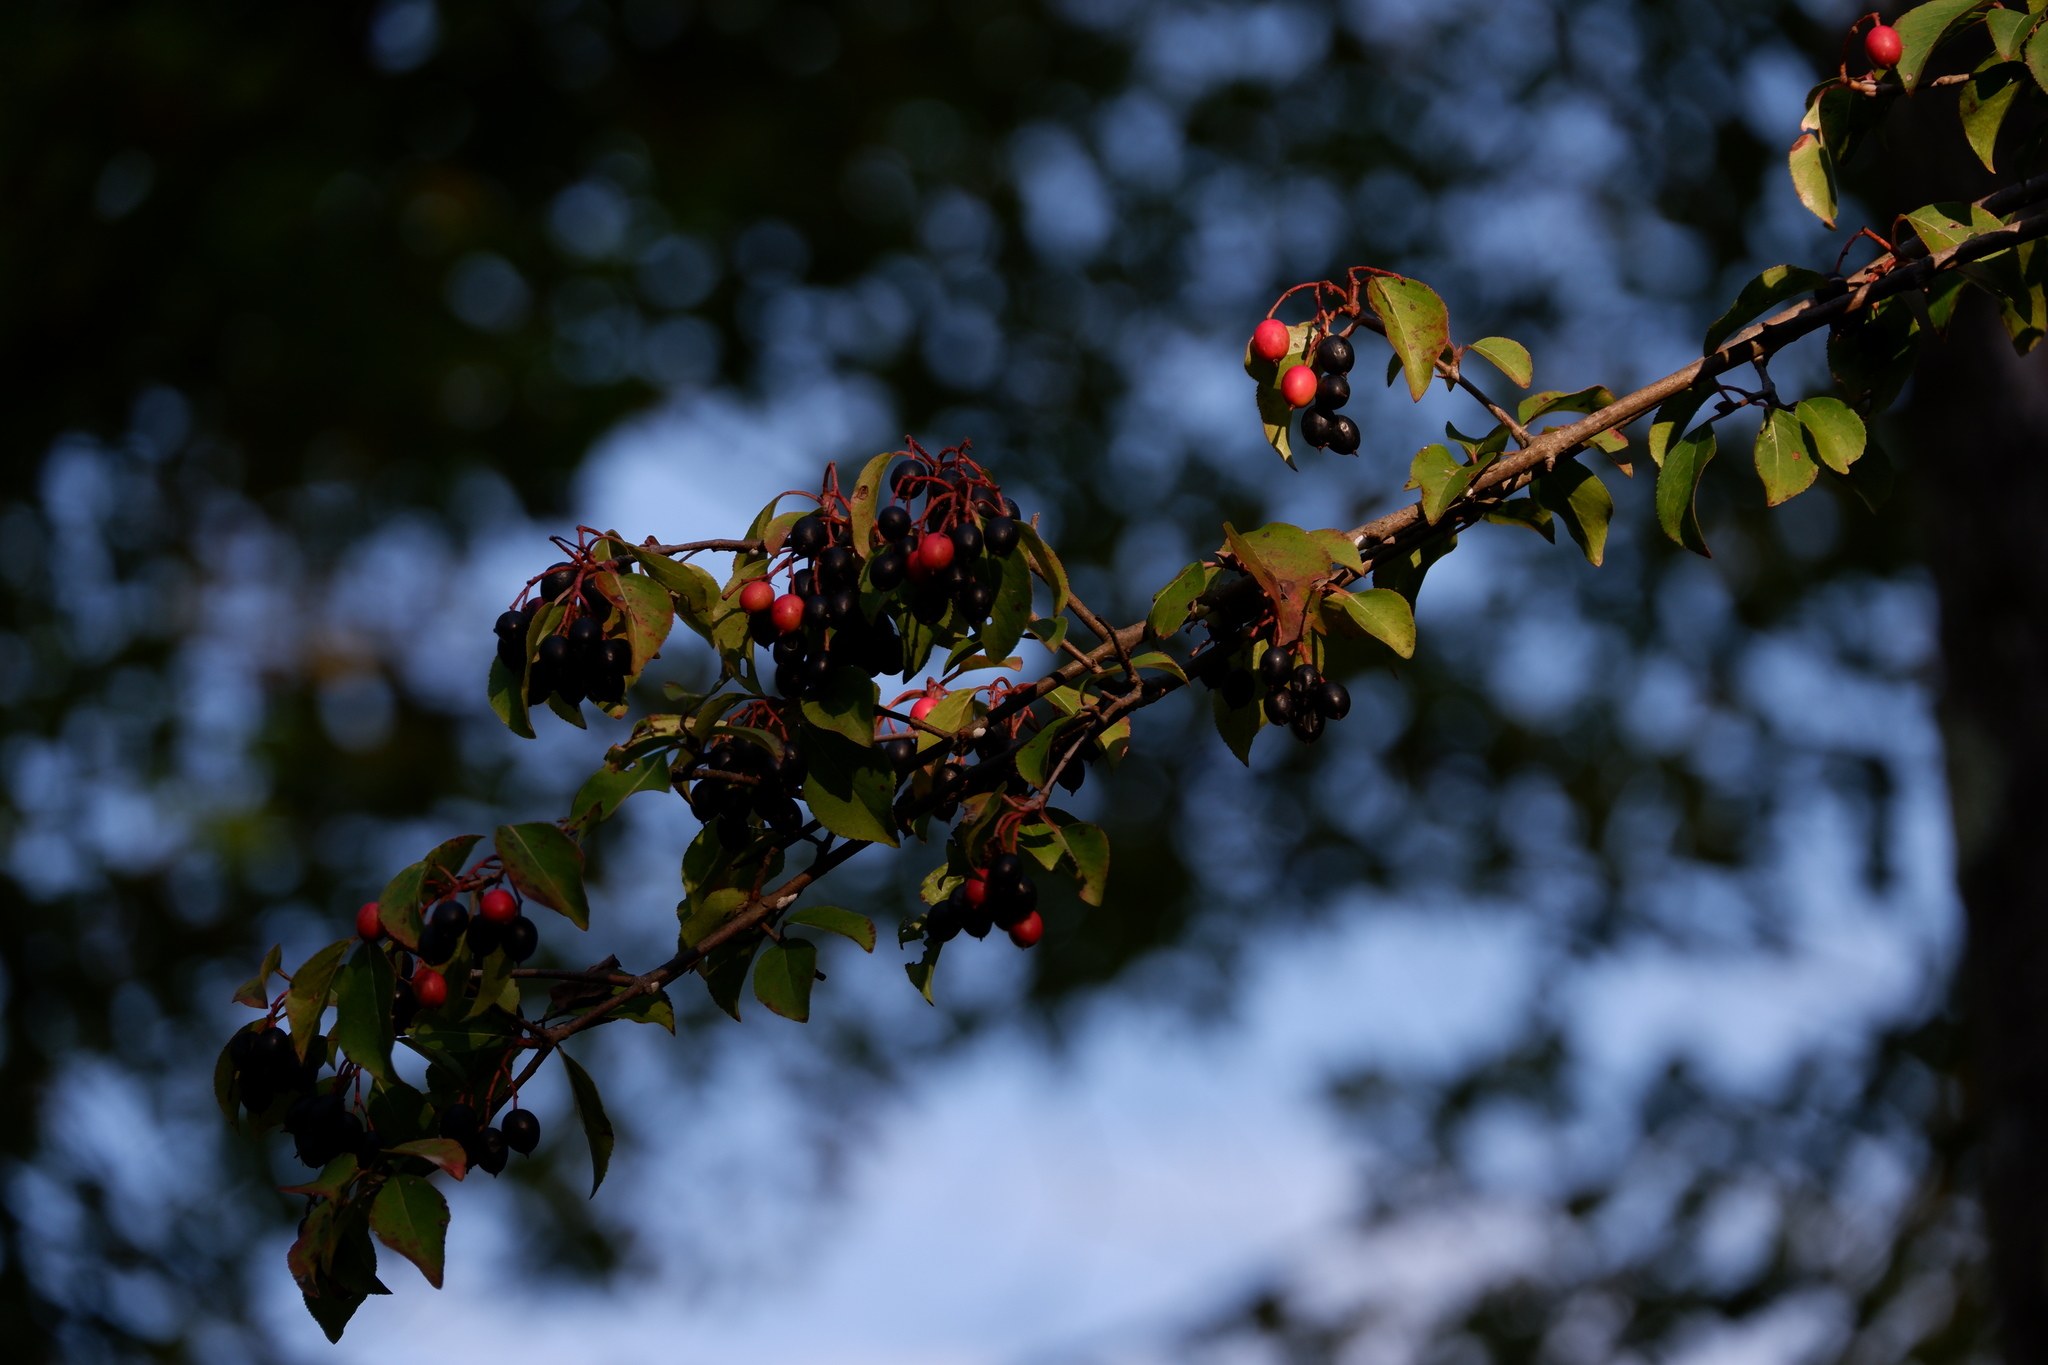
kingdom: Plantae
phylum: Tracheophyta
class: Magnoliopsida
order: Dipsacales
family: Viburnaceae
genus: Viburnum
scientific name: Viburnum prunifolium
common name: Black haw
